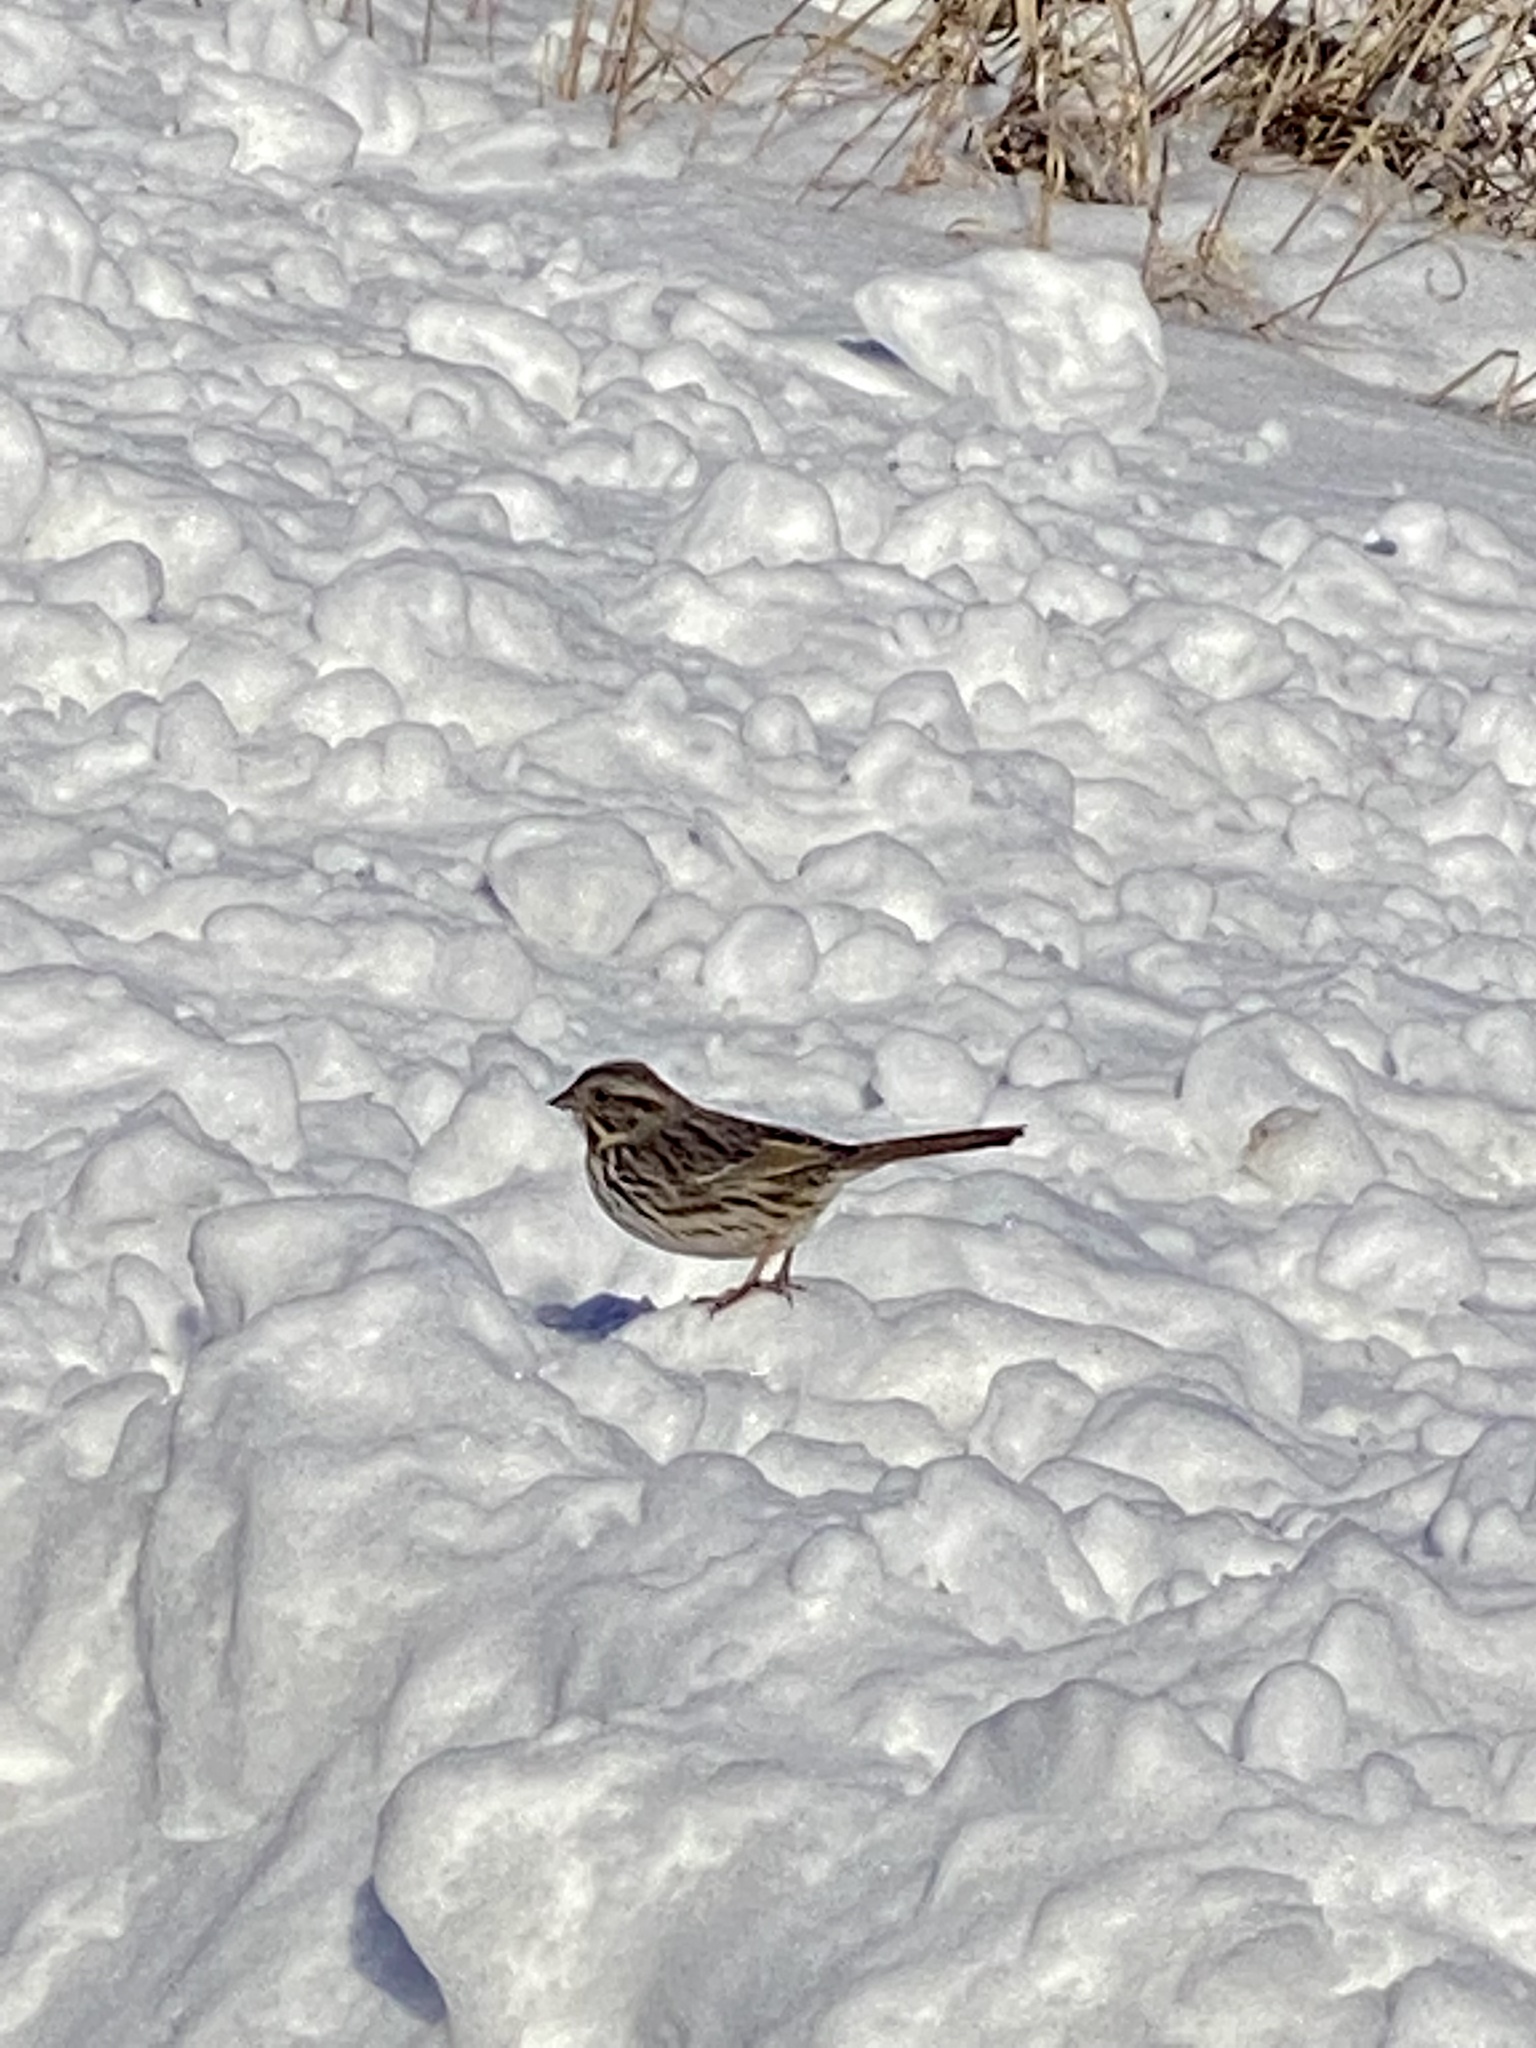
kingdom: Animalia
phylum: Chordata
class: Aves
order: Passeriformes
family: Passerellidae
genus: Melospiza
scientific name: Melospiza melodia
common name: Song sparrow
